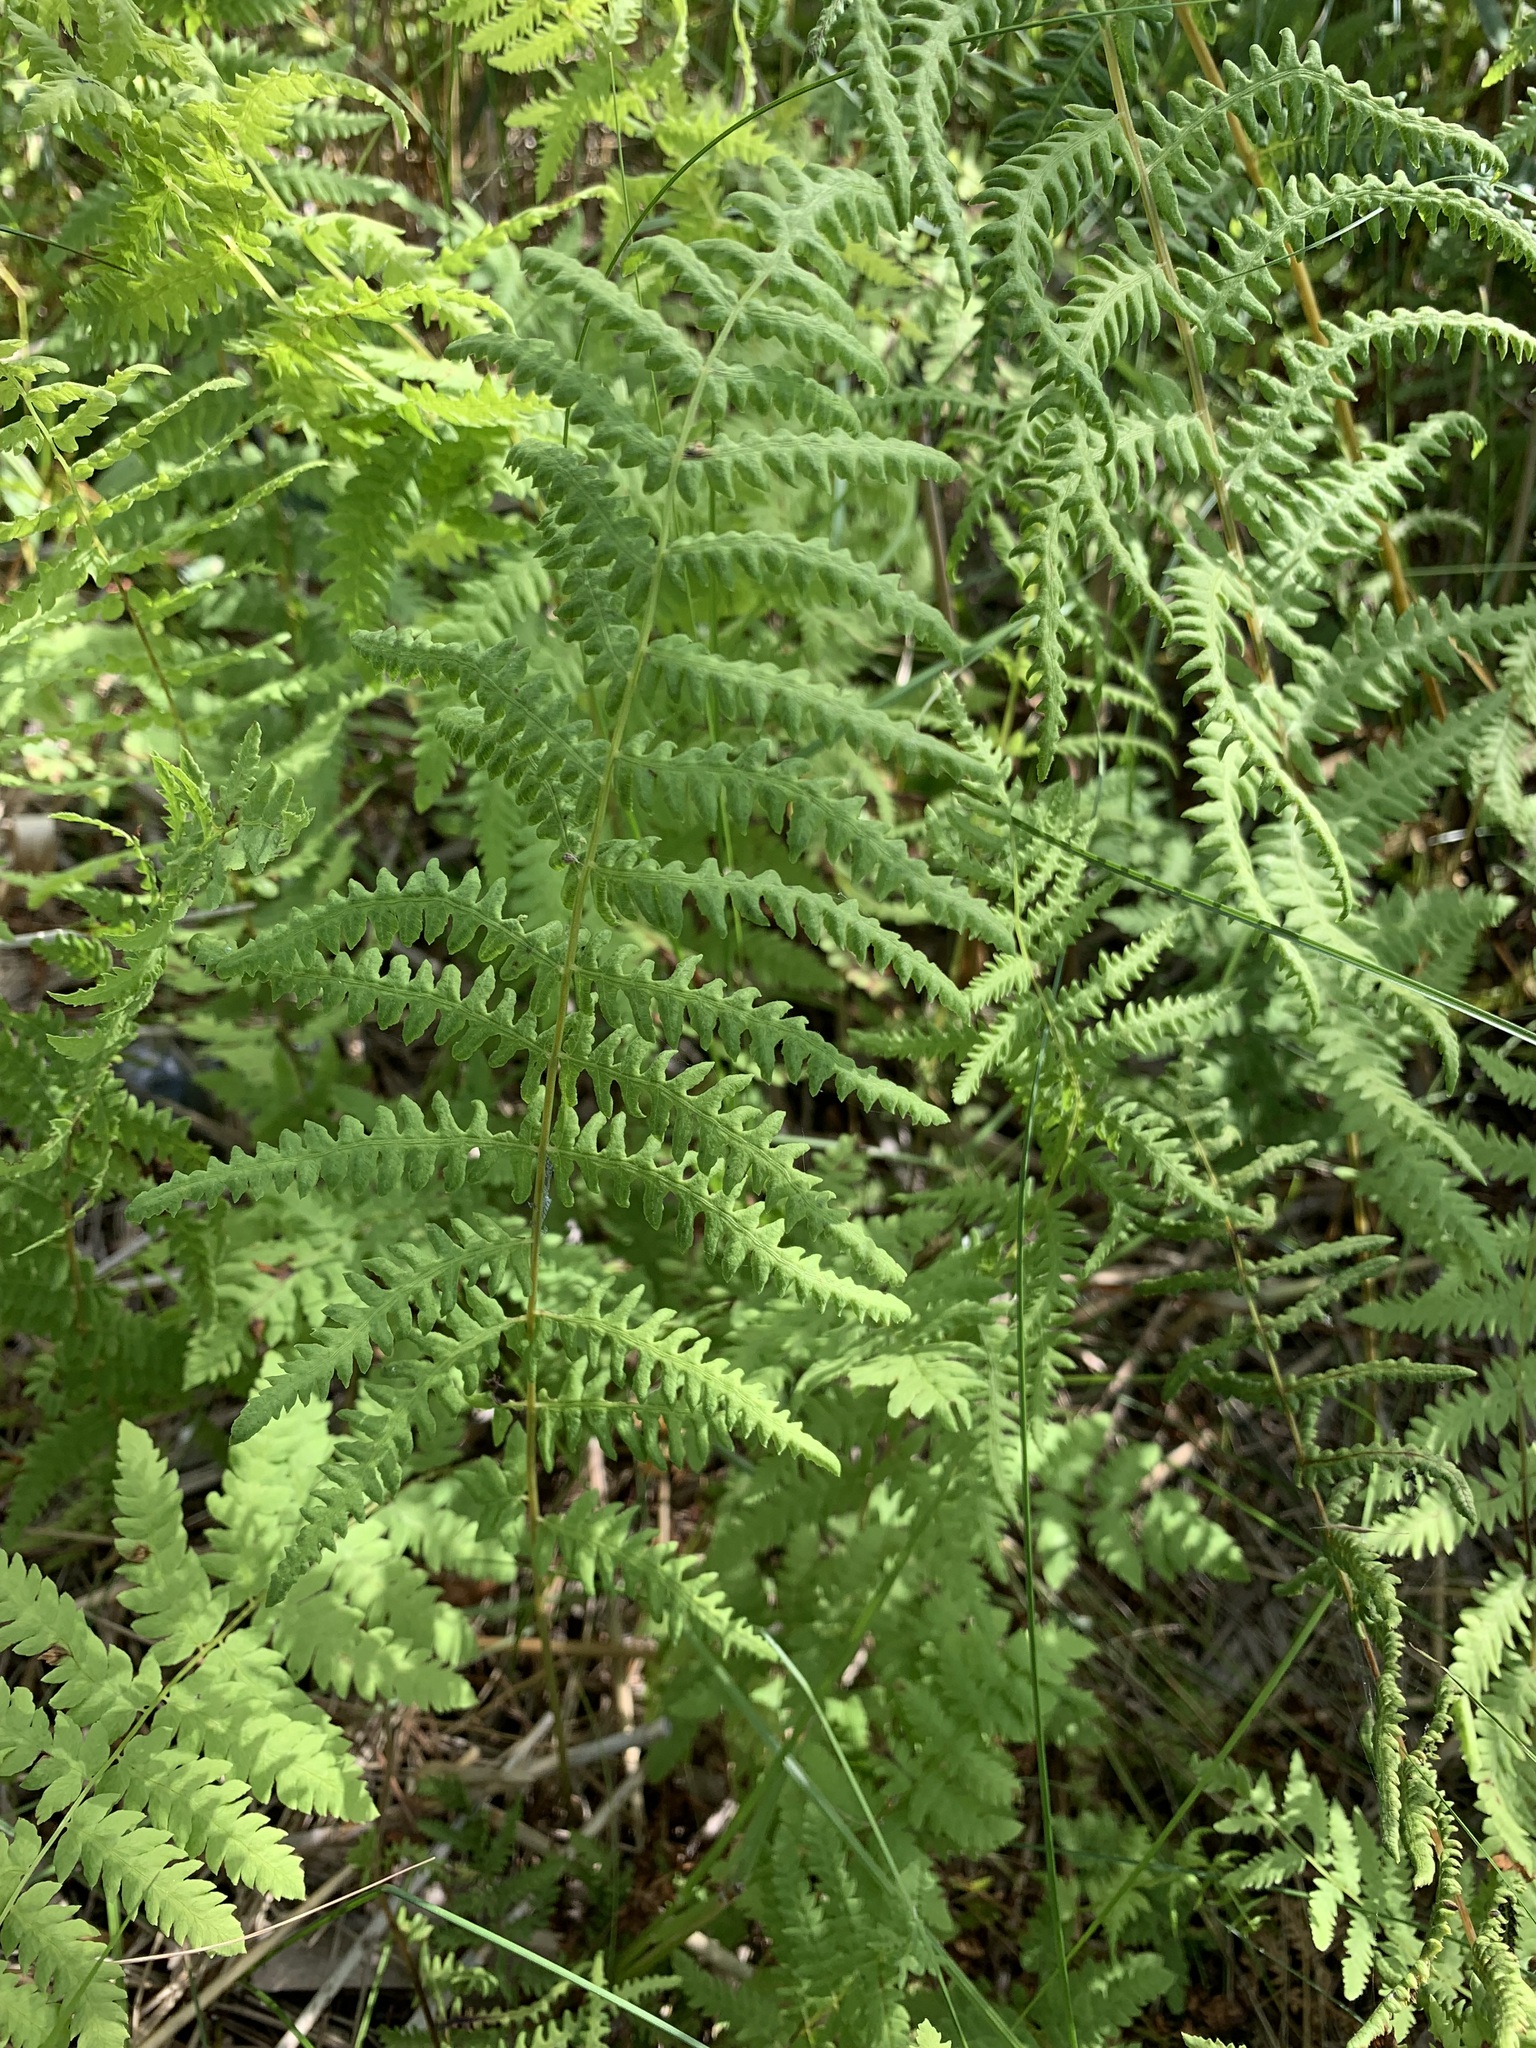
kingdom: Plantae
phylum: Tracheophyta
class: Polypodiopsida
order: Polypodiales
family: Thelypteridaceae
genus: Thelypteris
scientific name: Thelypteris palustris
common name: Marsh fern
